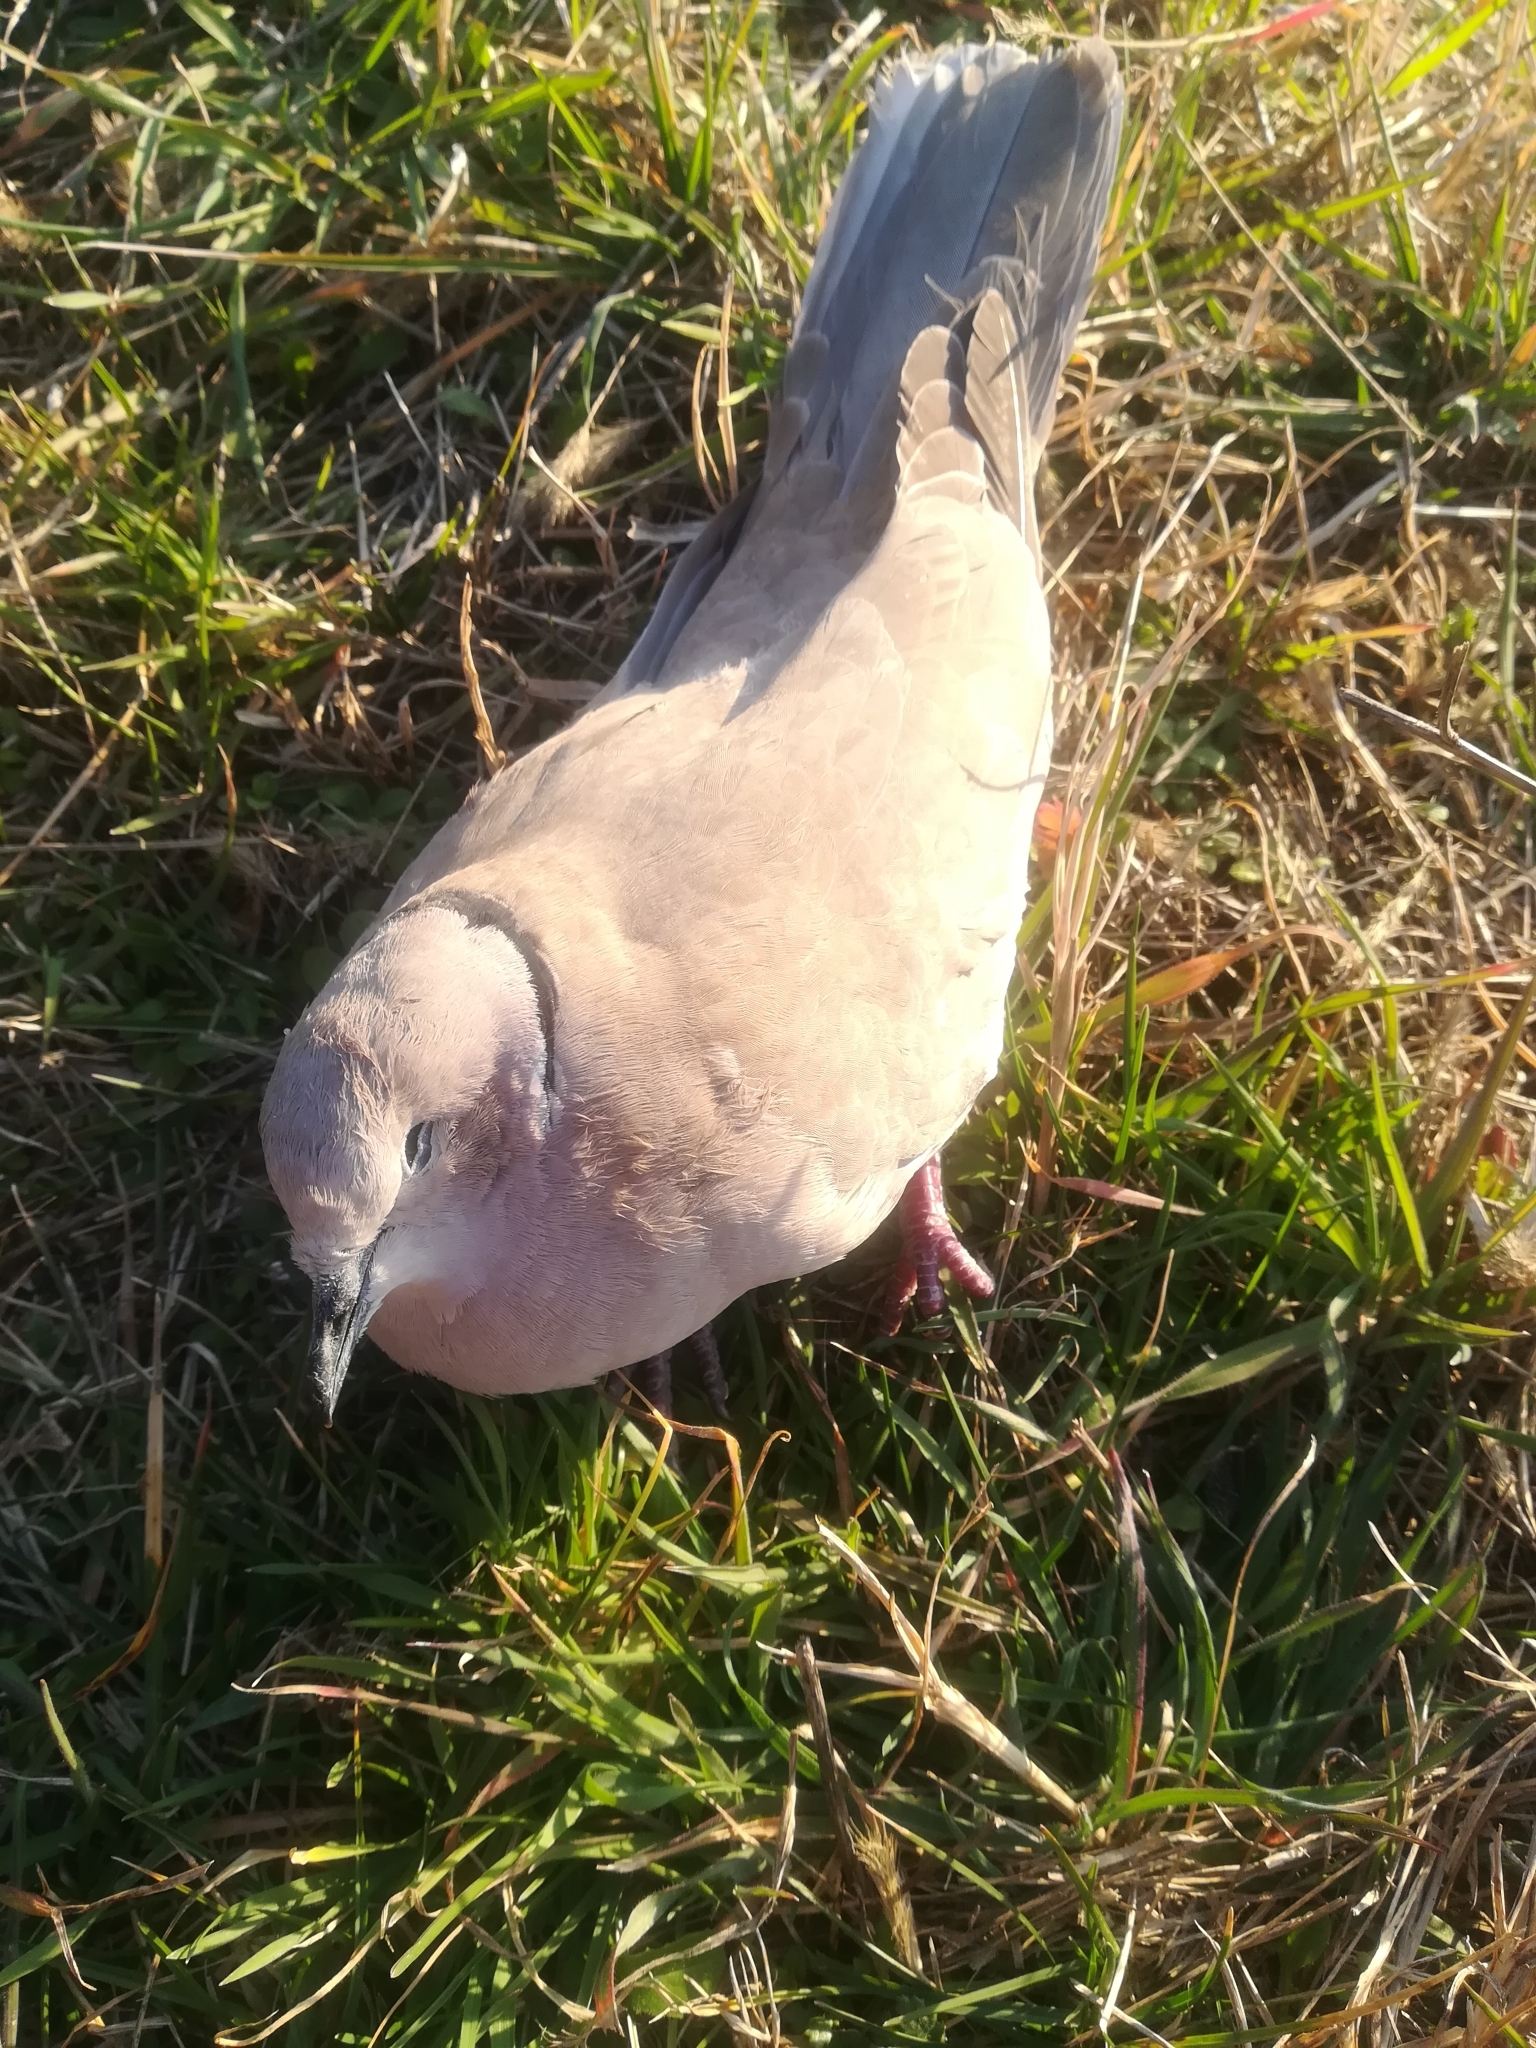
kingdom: Animalia
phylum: Chordata
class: Aves
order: Columbiformes
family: Columbidae
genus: Streptopelia
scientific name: Streptopelia decaocto
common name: Eurasian collared dove
